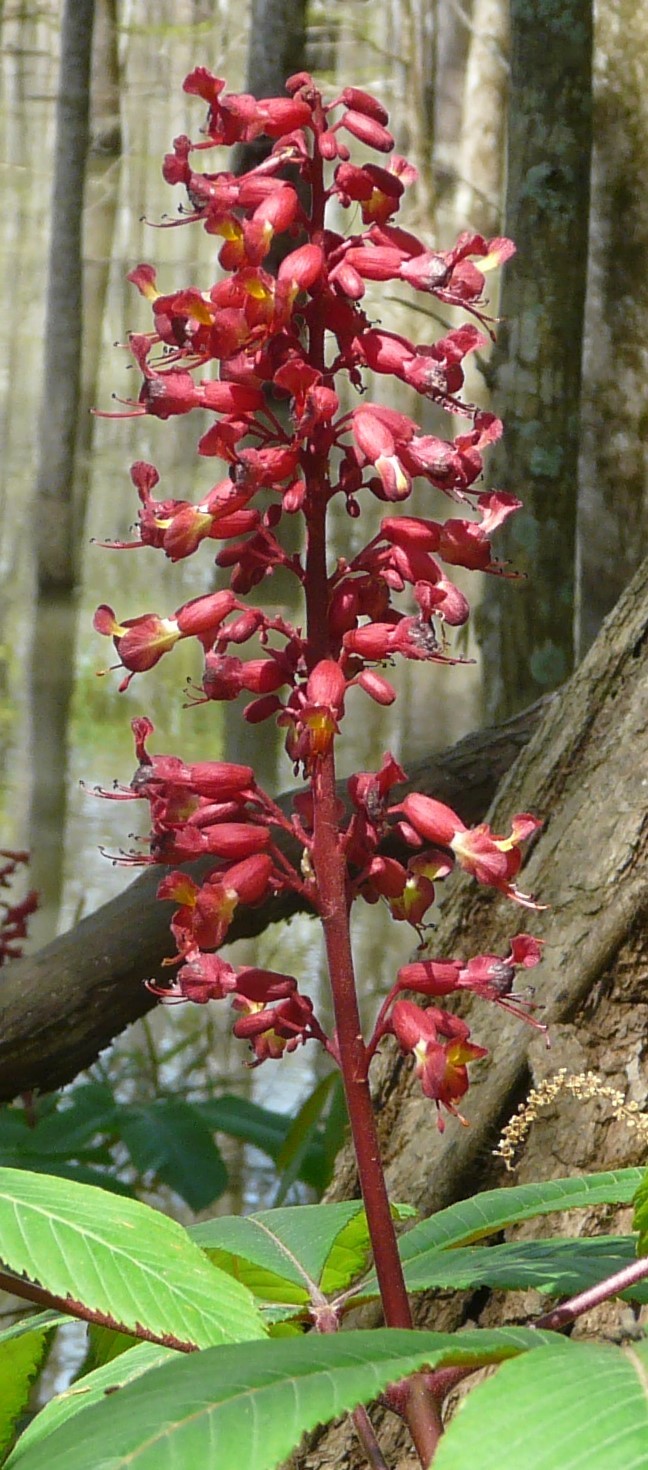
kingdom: Plantae
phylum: Tracheophyta
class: Magnoliopsida
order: Sapindales
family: Sapindaceae
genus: Aesculus
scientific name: Aesculus pavia
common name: Red buckeye
